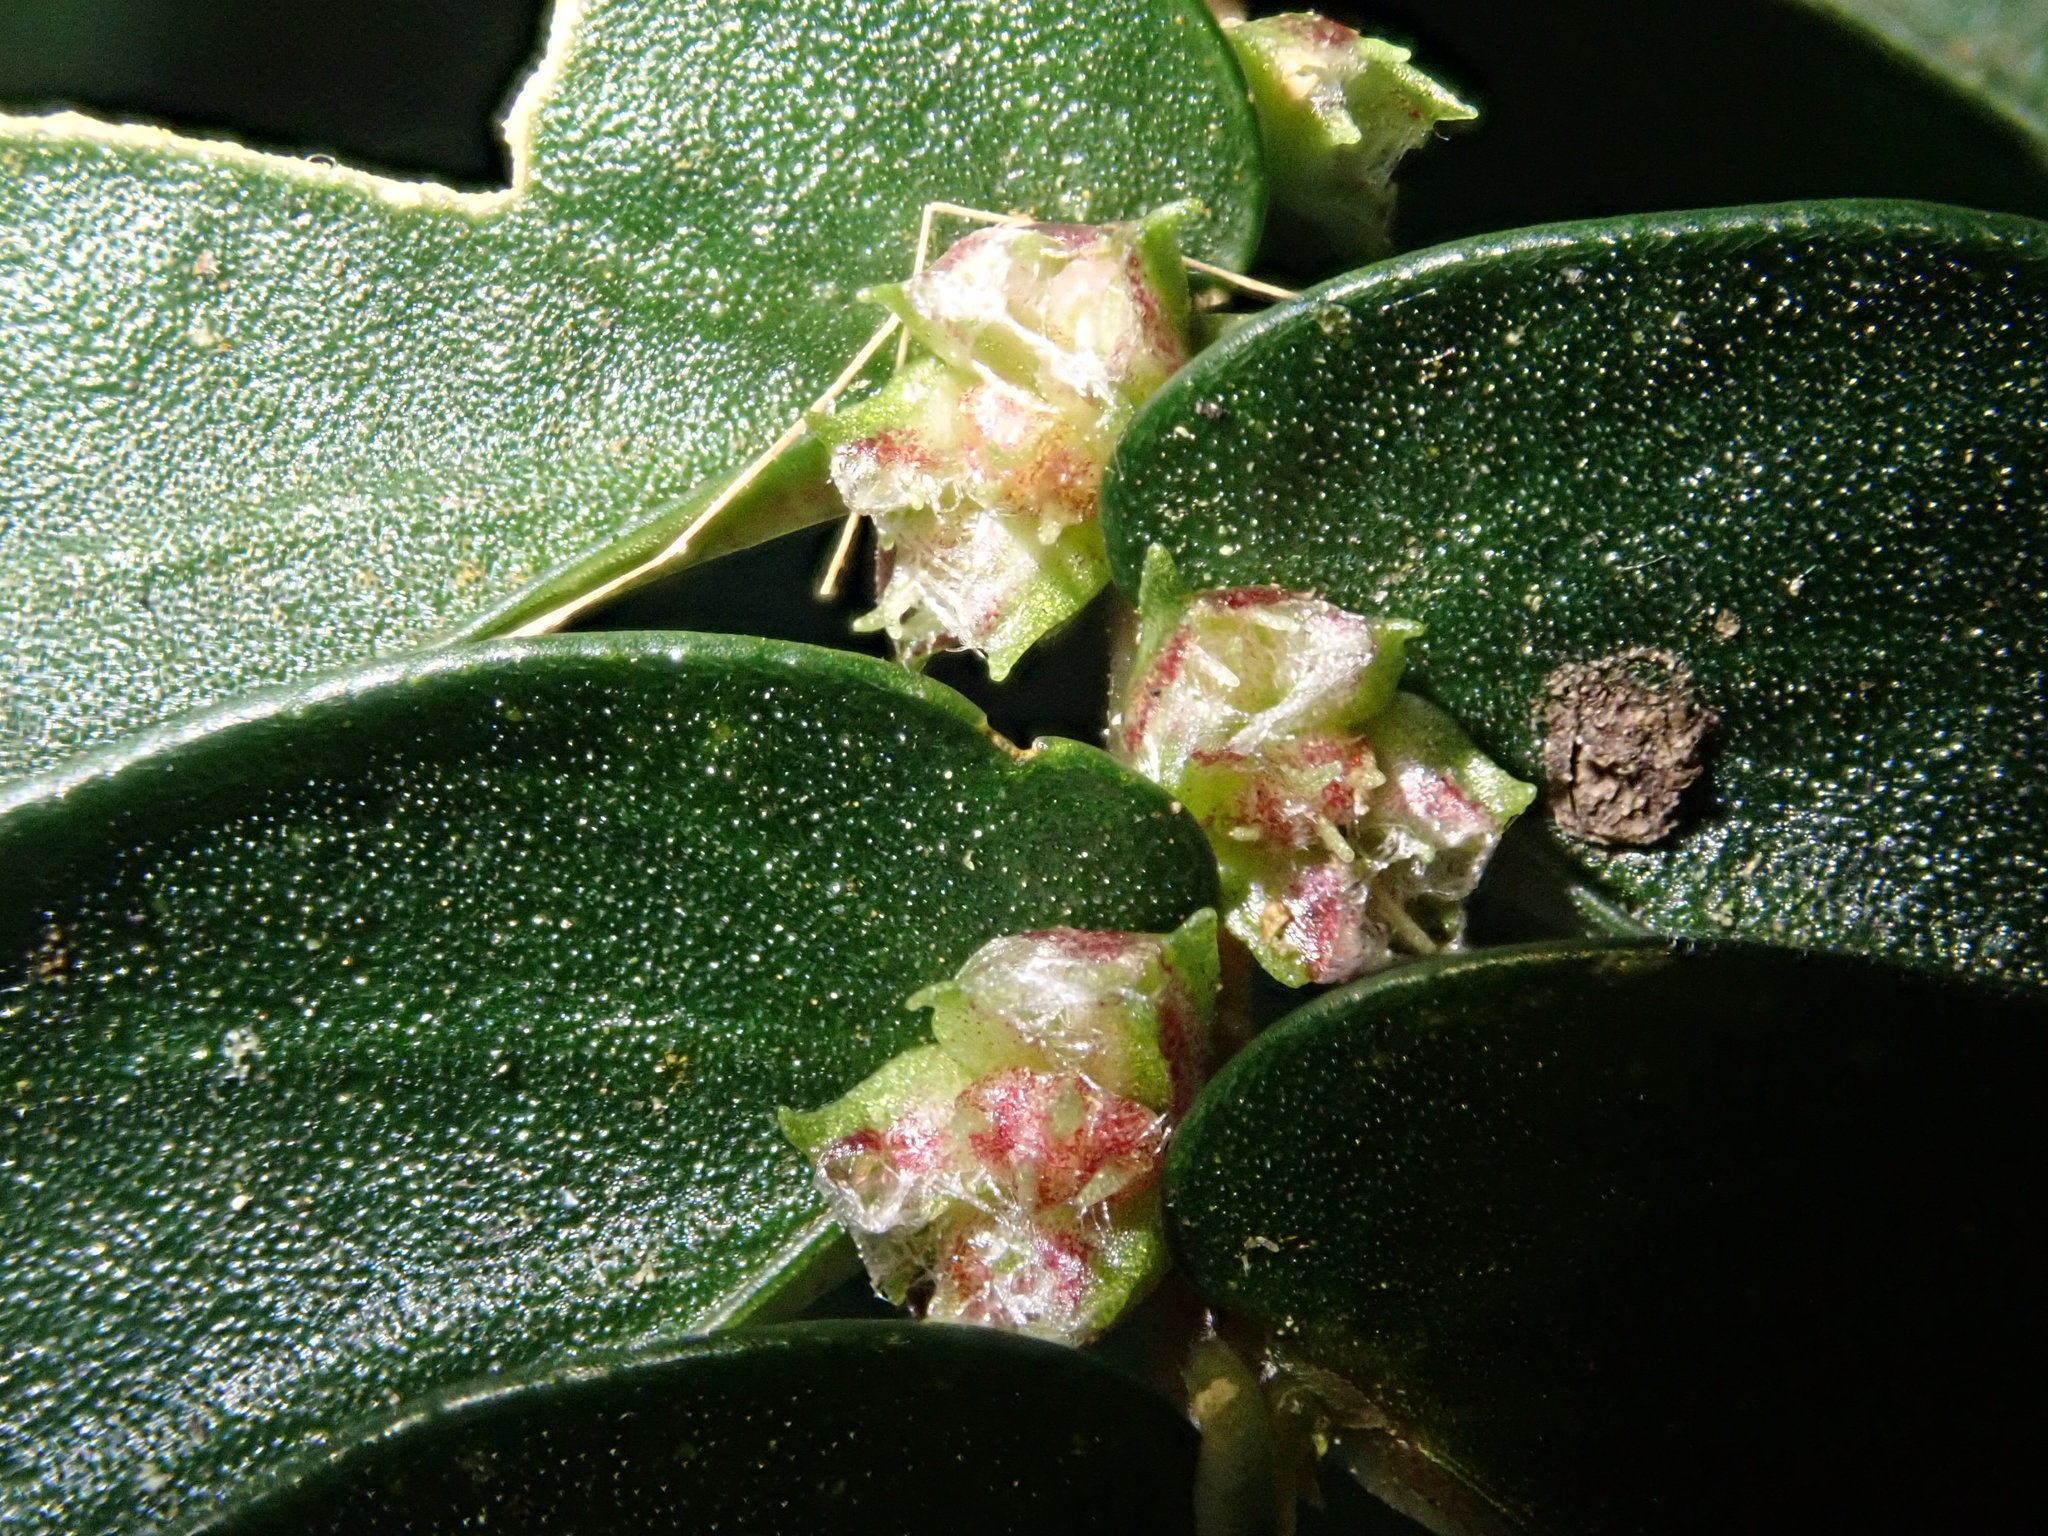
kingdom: Plantae
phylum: Tracheophyta
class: Magnoliopsida
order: Rosales
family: Urticaceae
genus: Elatostema
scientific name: Elatostema hookerianum
